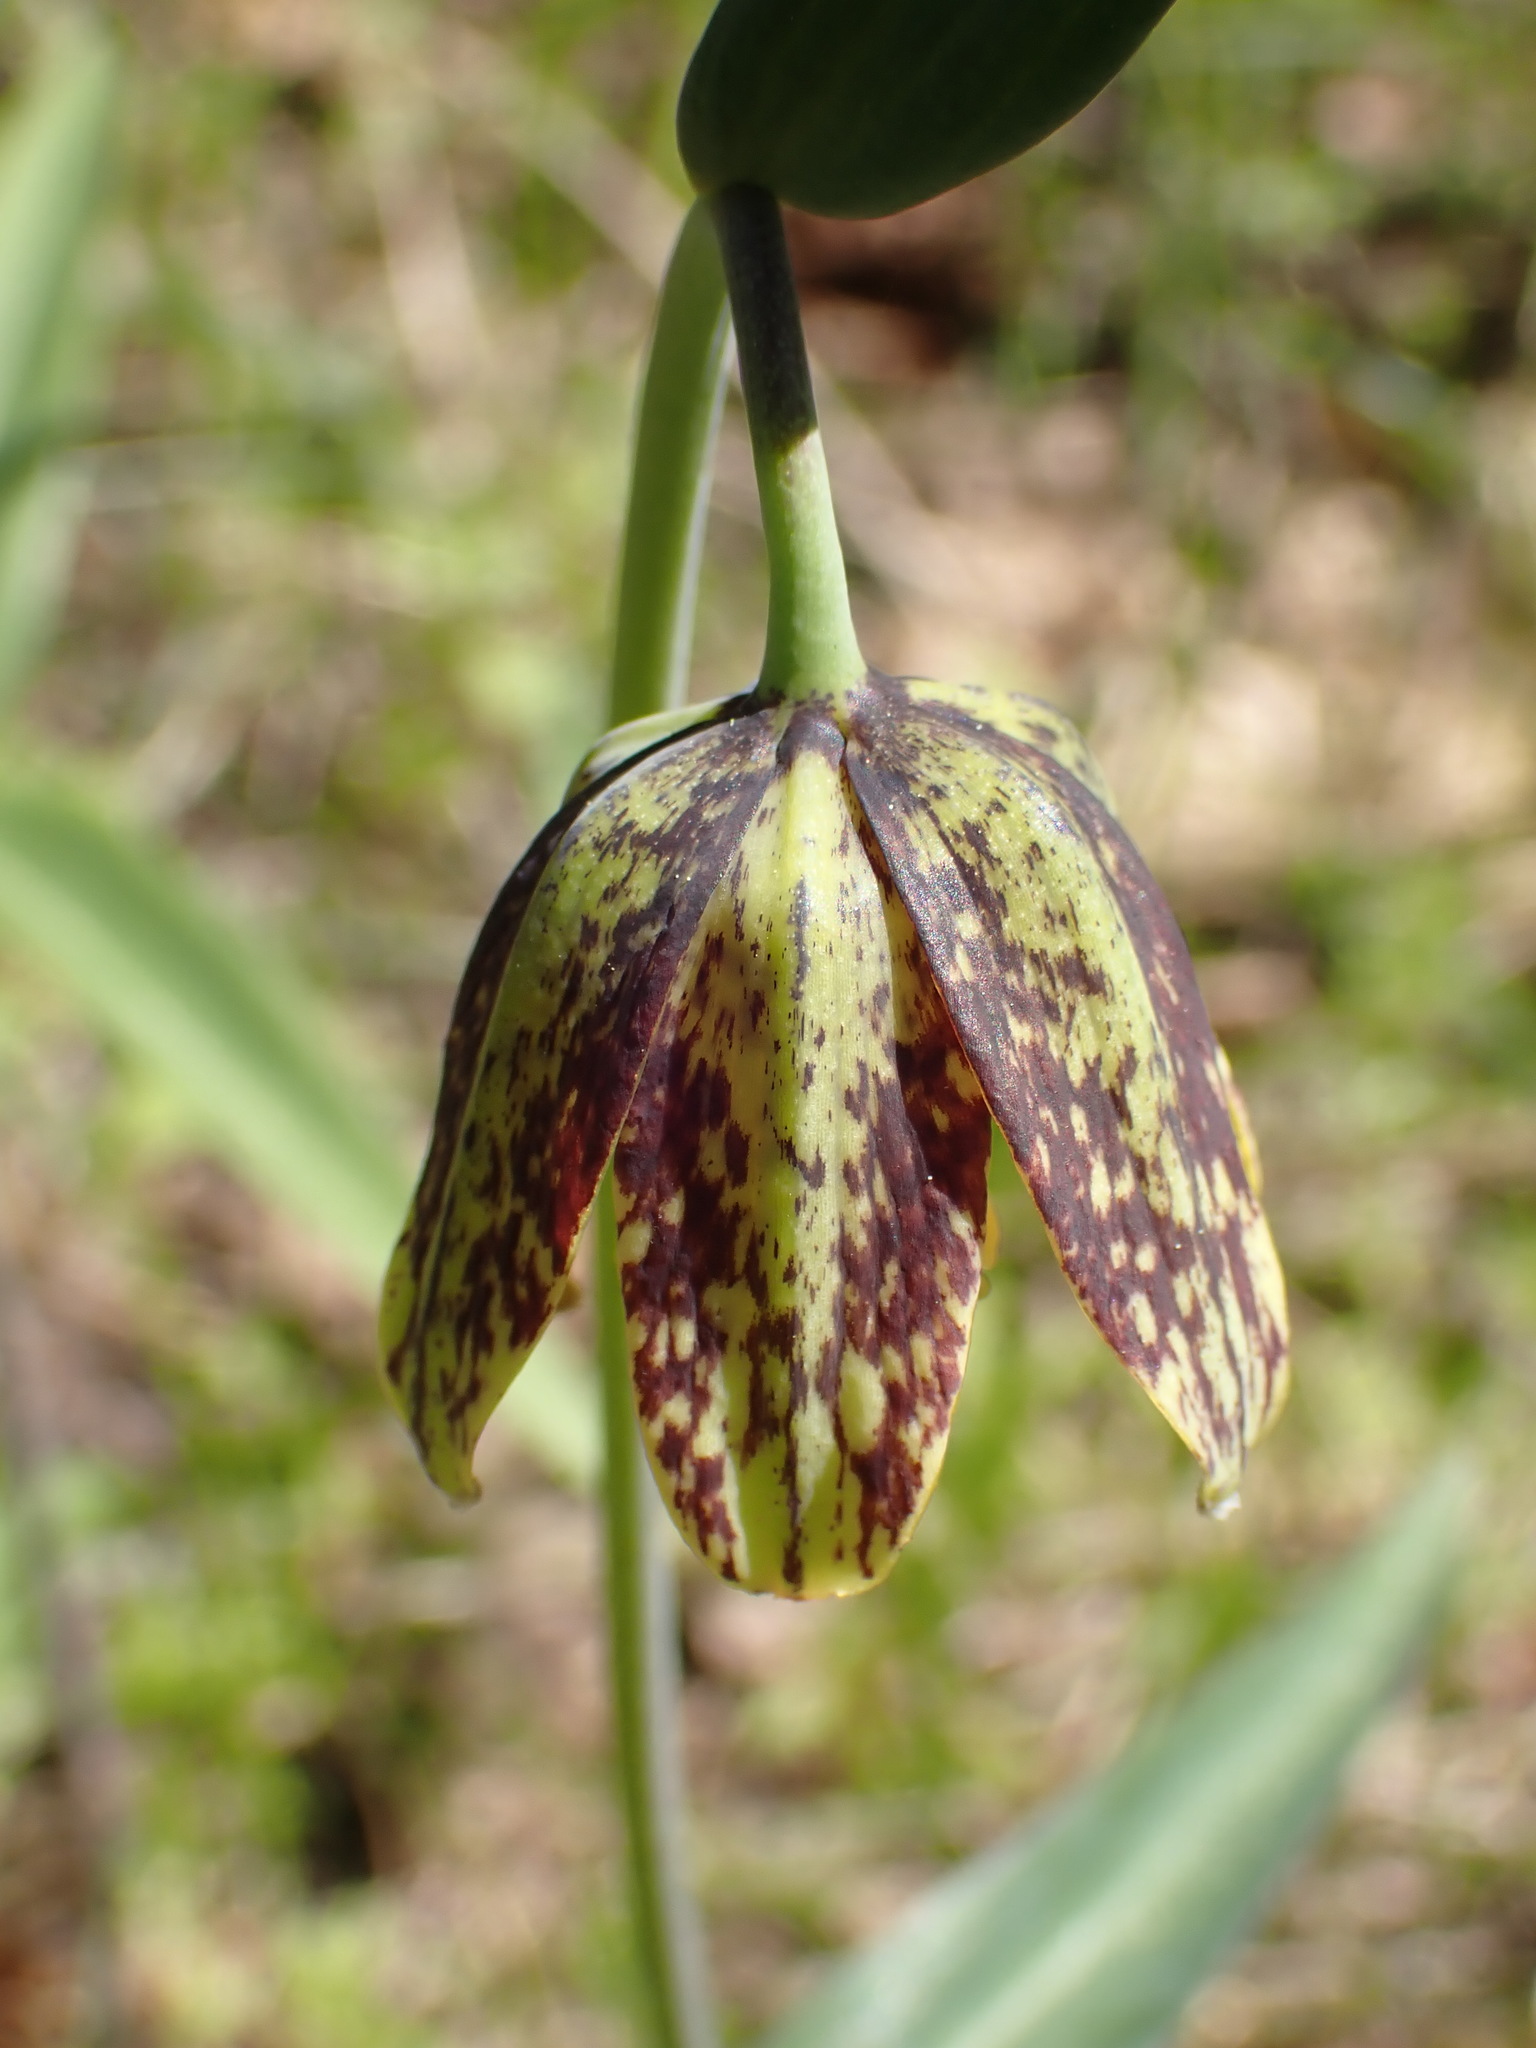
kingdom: Plantae
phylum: Tracheophyta
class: Liliopsida
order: Liliales
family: Liliaceae
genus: Fritillaria
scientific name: Fritillaria affinis
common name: Ojai fritillary
